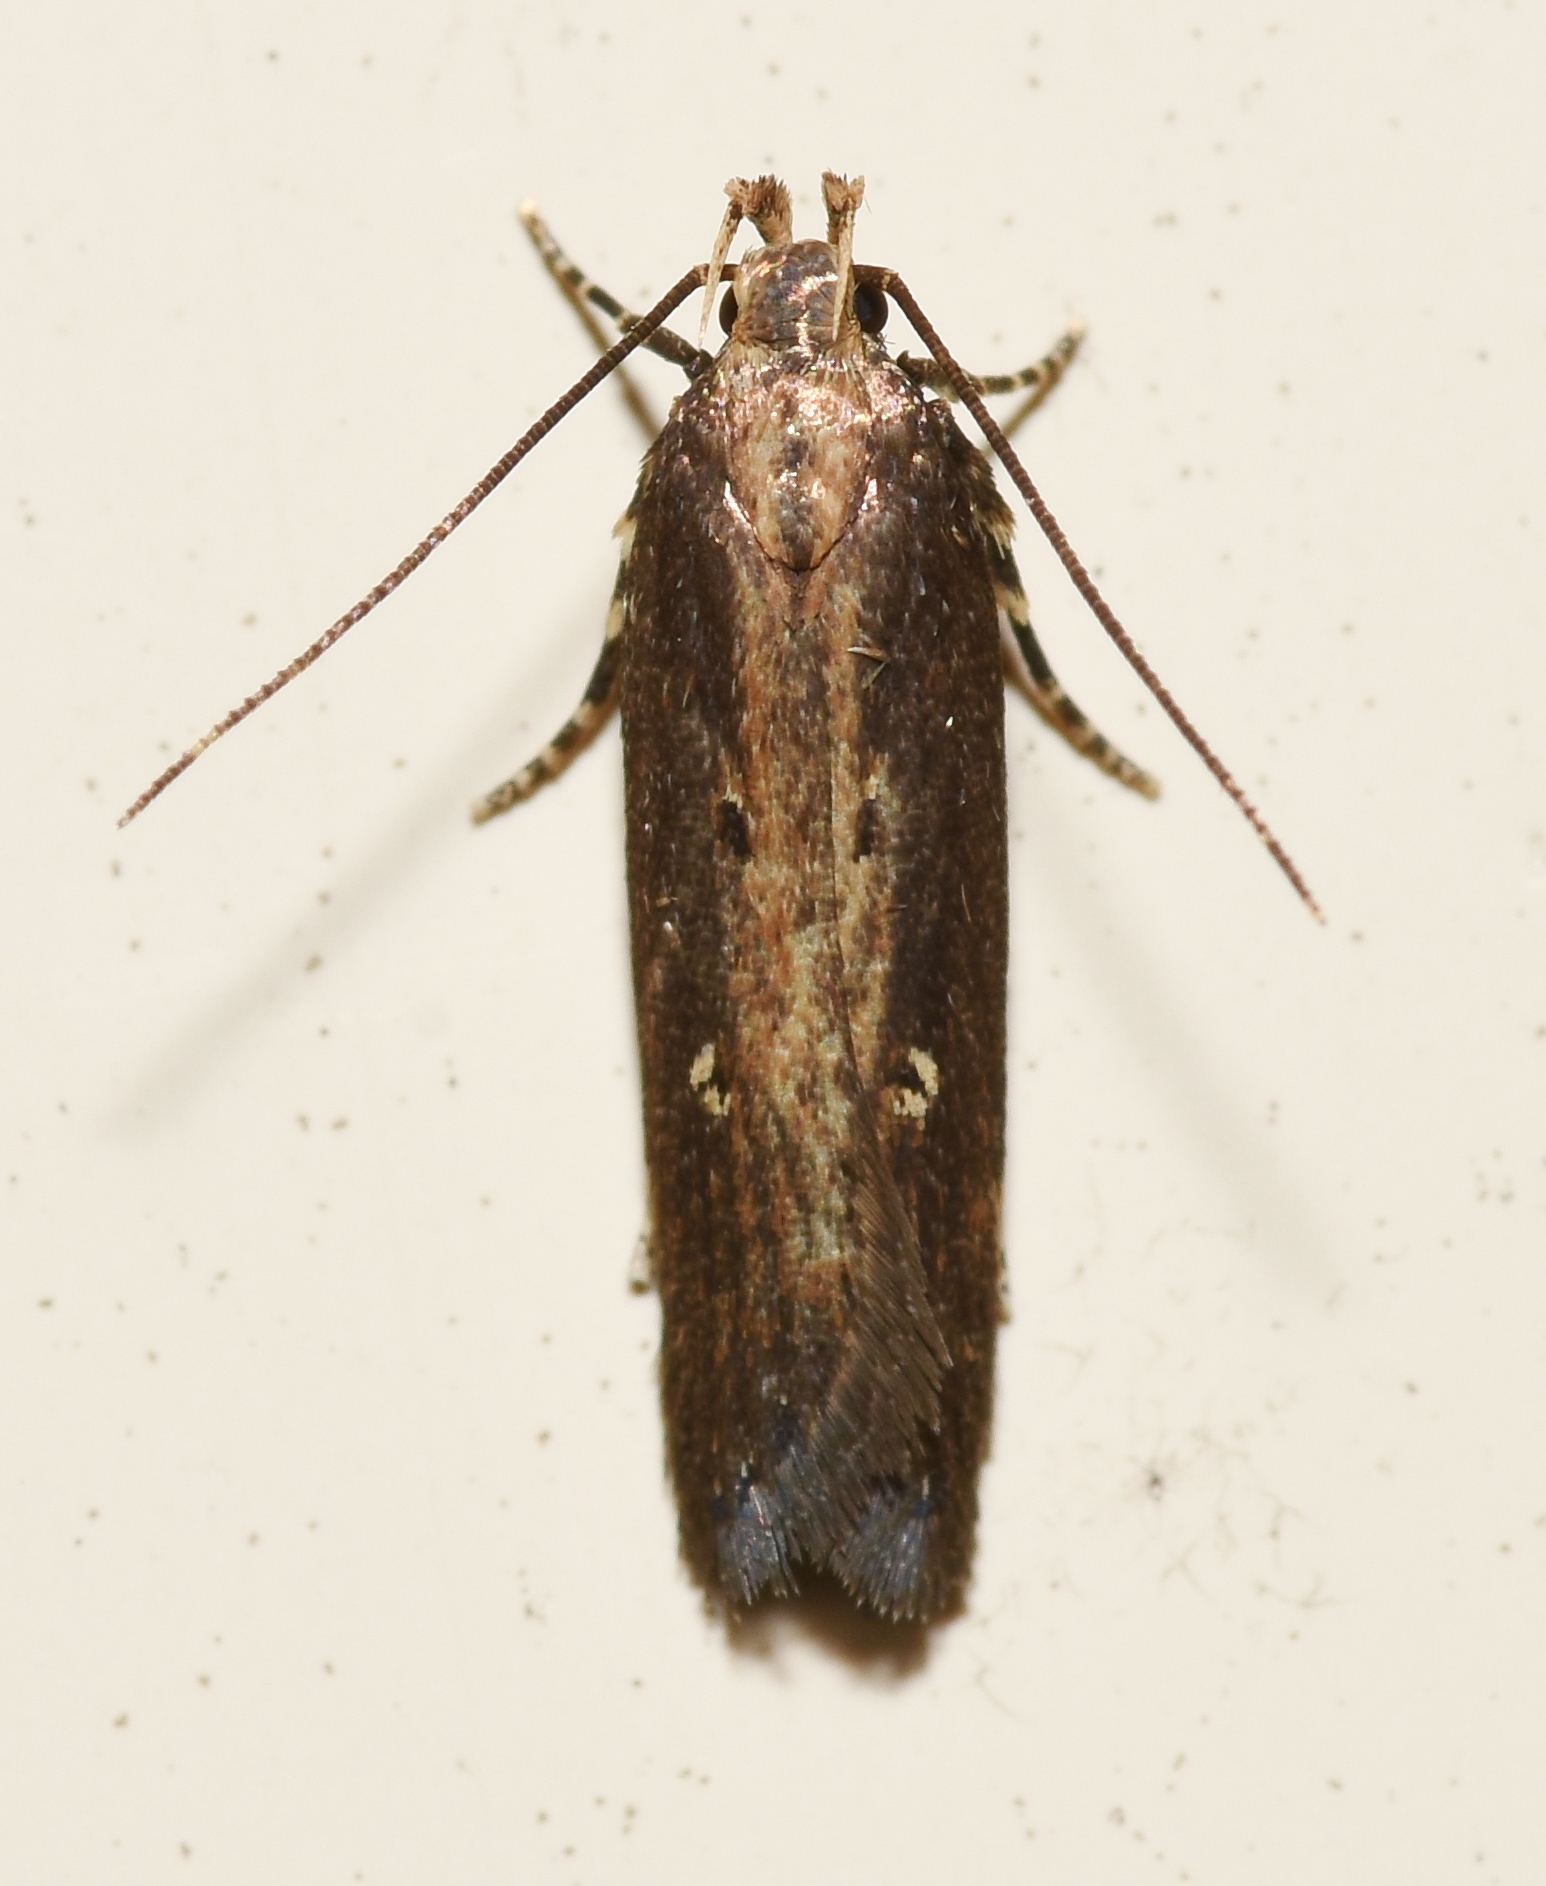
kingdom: Animalia
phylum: Arthropoda
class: Insecta
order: Lepidoptera
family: Gelechiidae
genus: Chionodes
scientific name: Chionodes discoocellella
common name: Eye-ringed chionodes moth
